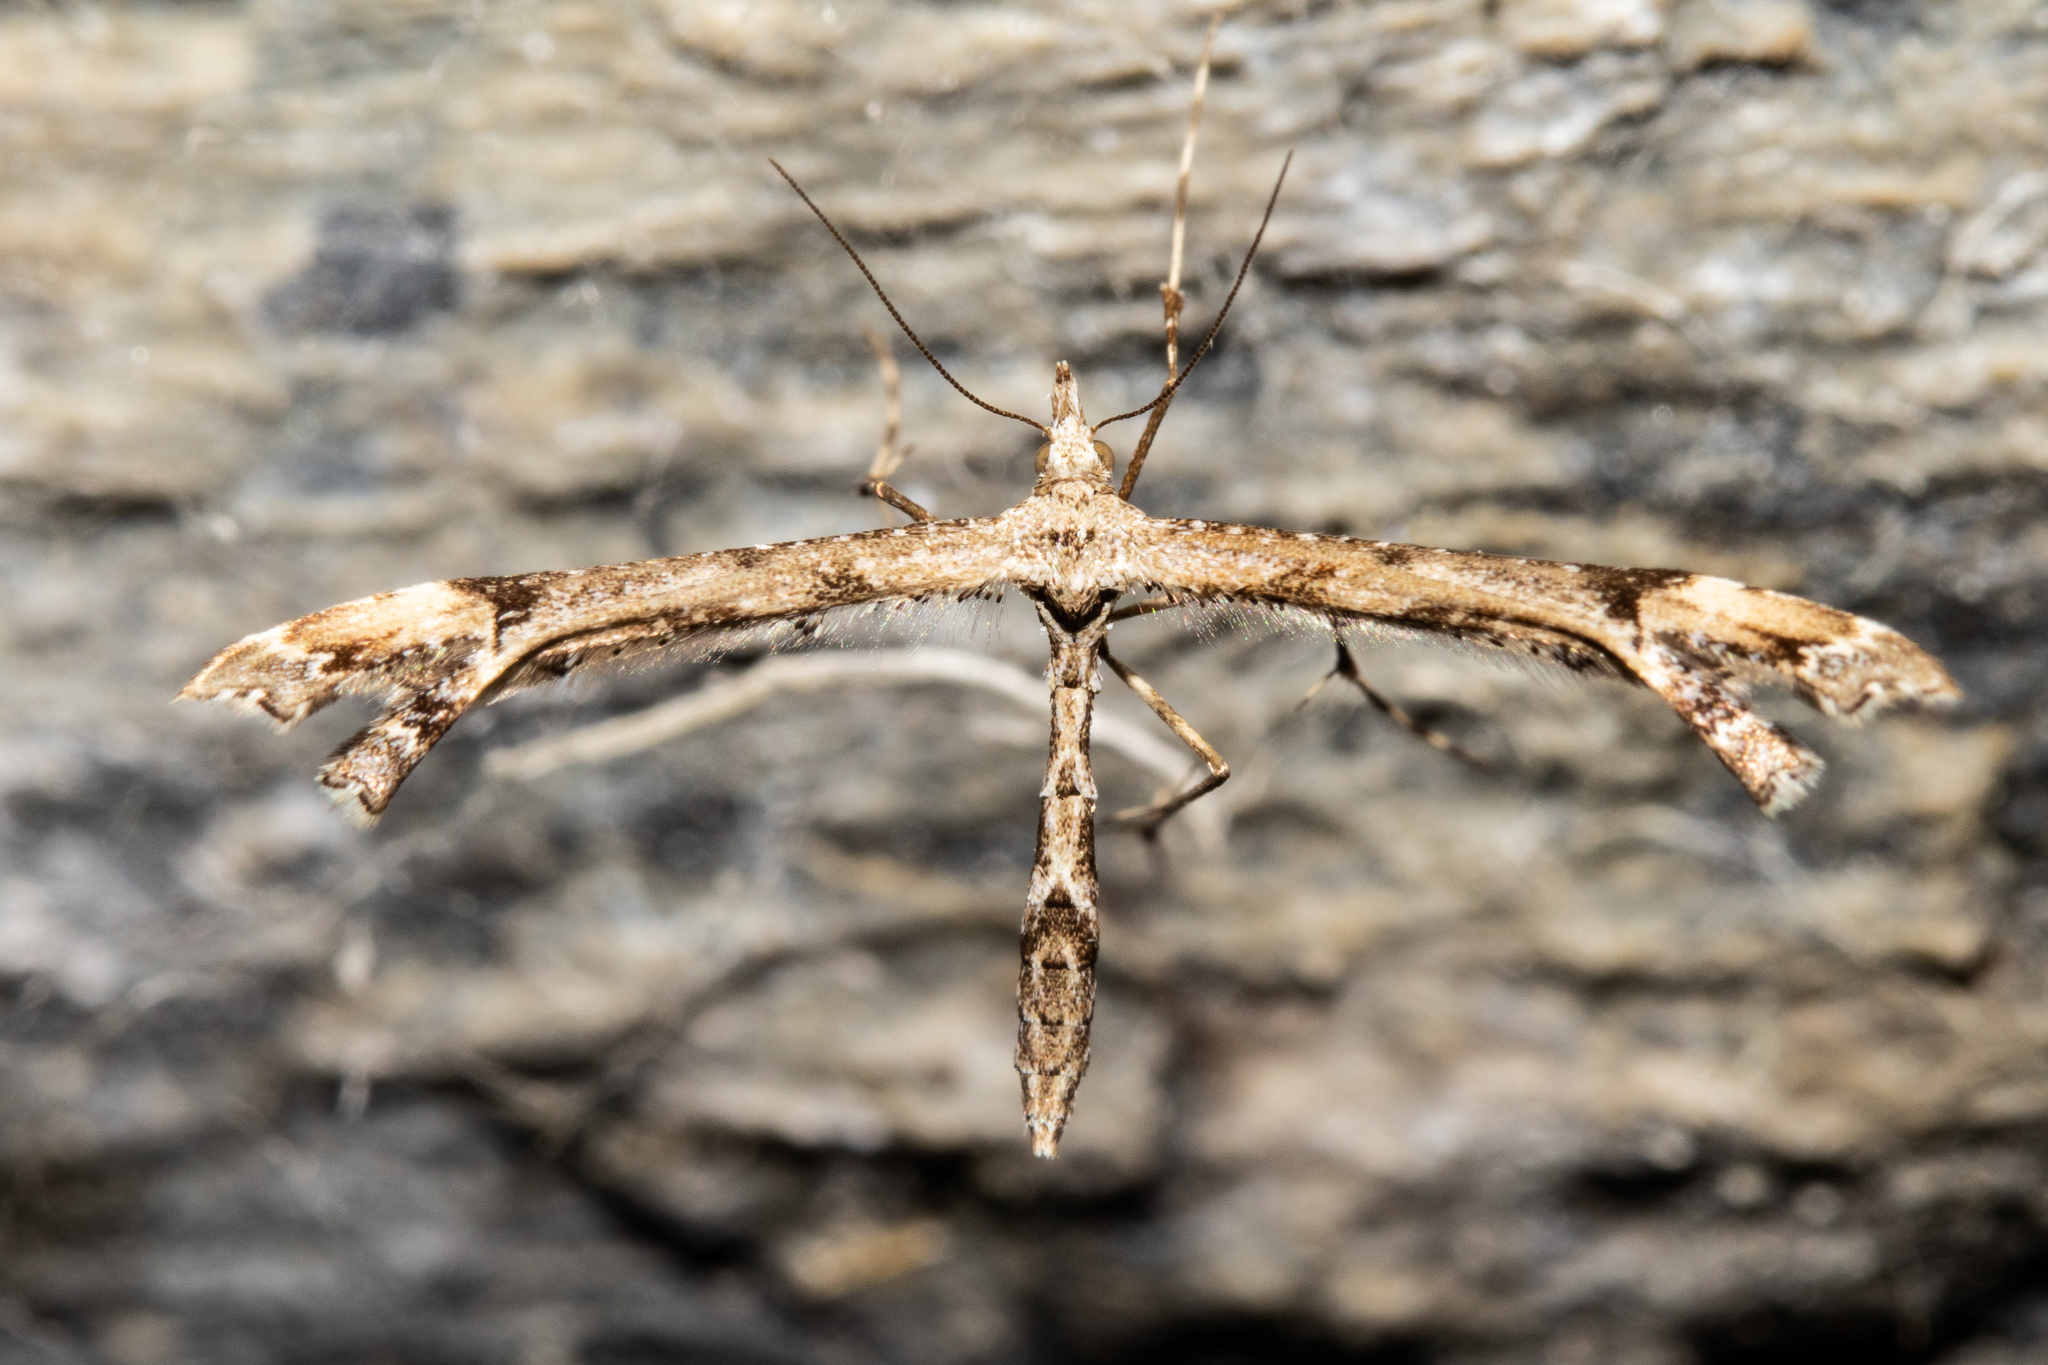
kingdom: Animalia
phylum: Arthropoda
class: Insecta
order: Lepidoptera
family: Pterophoridae
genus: Amblyptilia
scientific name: Amblyptilia repletalis
